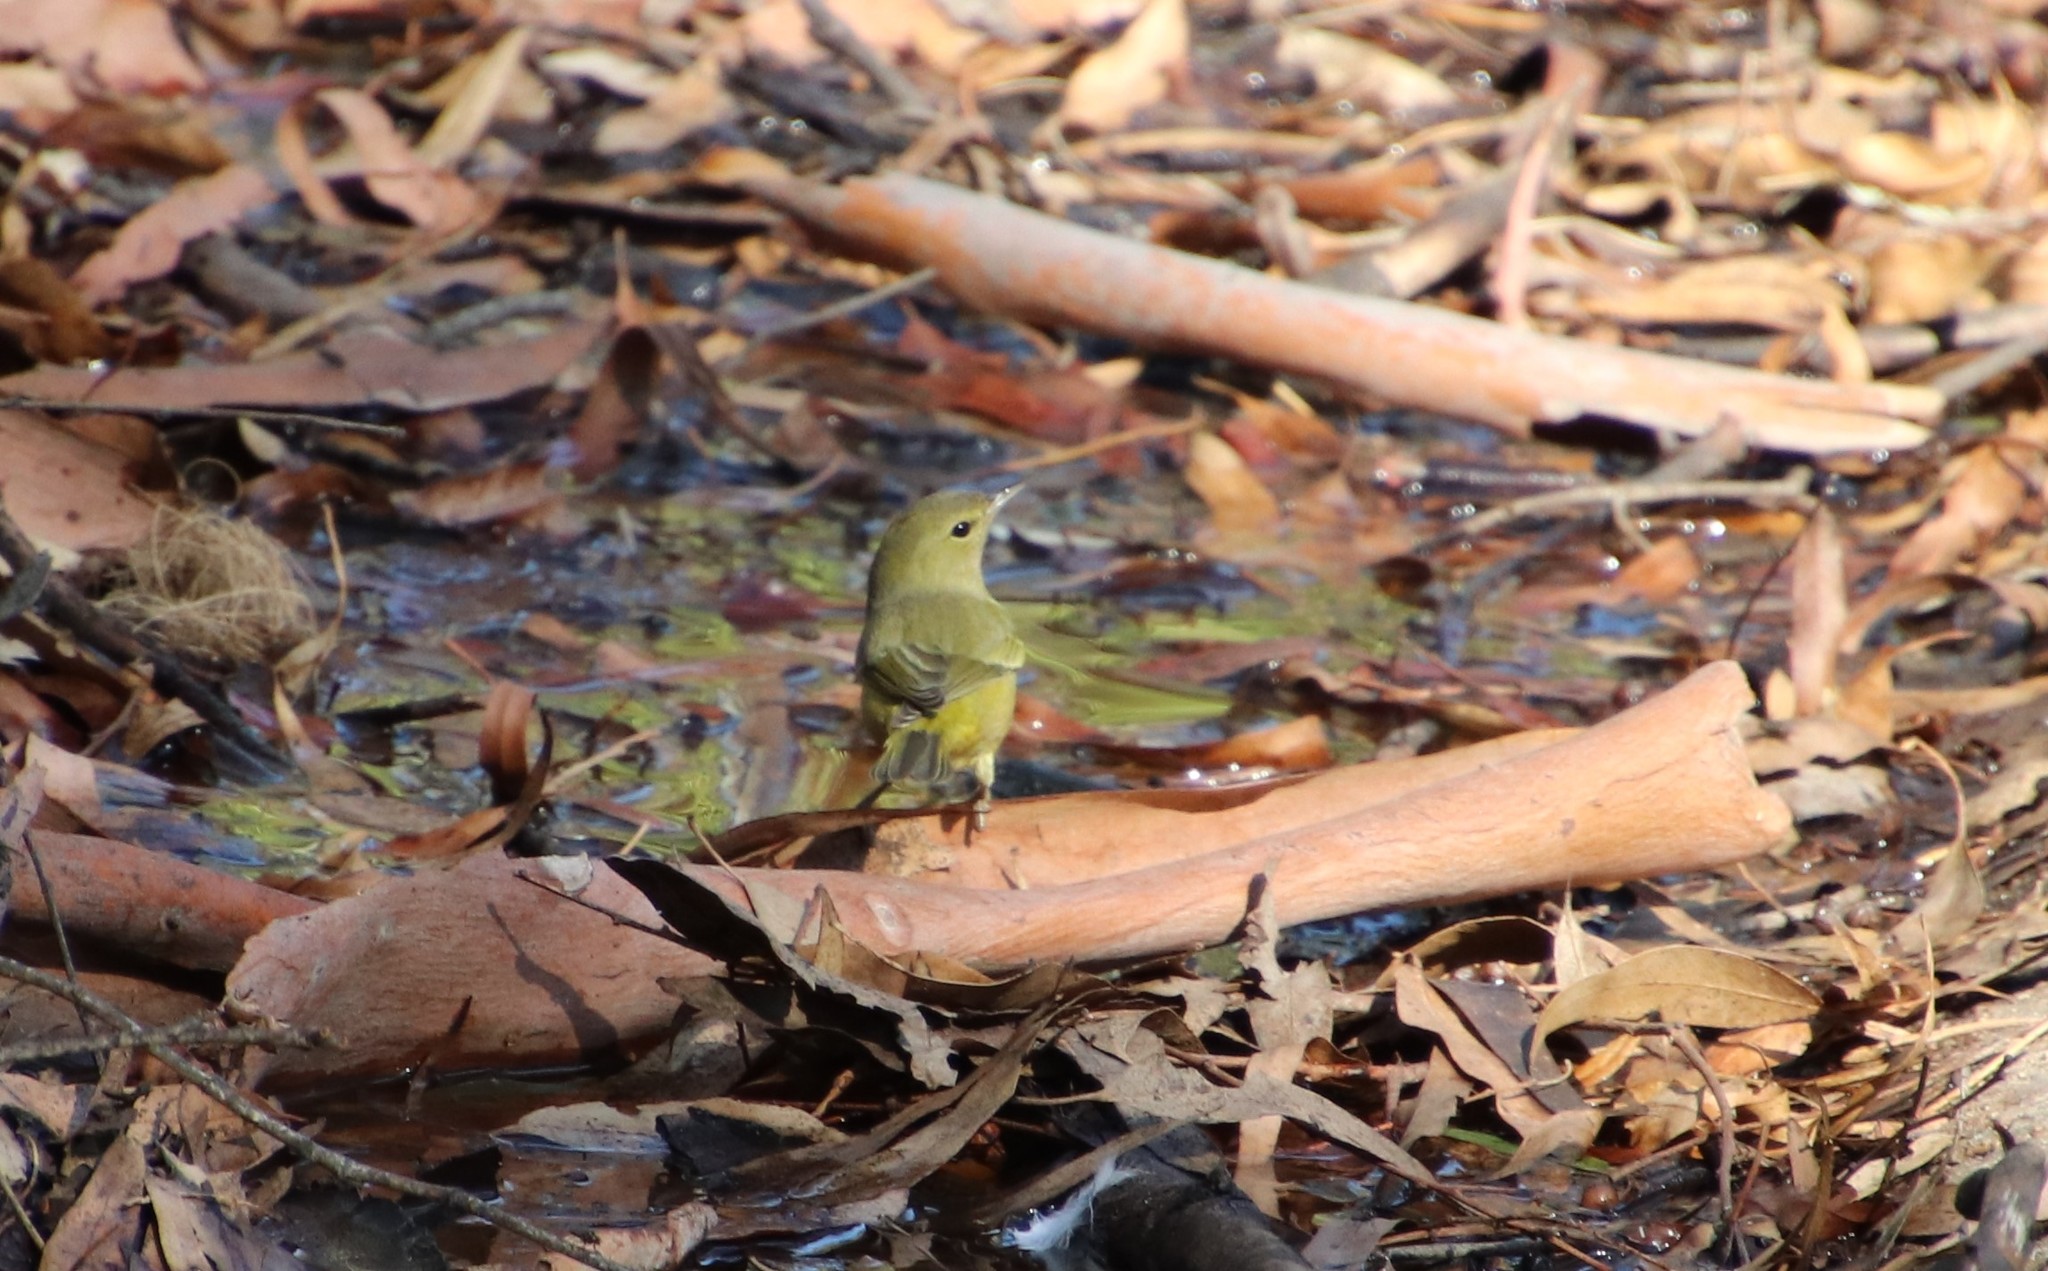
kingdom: Animalia
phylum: Chordata
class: Aves
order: Passeriformes
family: Parulidae
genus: Leiothlypis
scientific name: Leiothlypis celata
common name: Orange-crowned warbler
